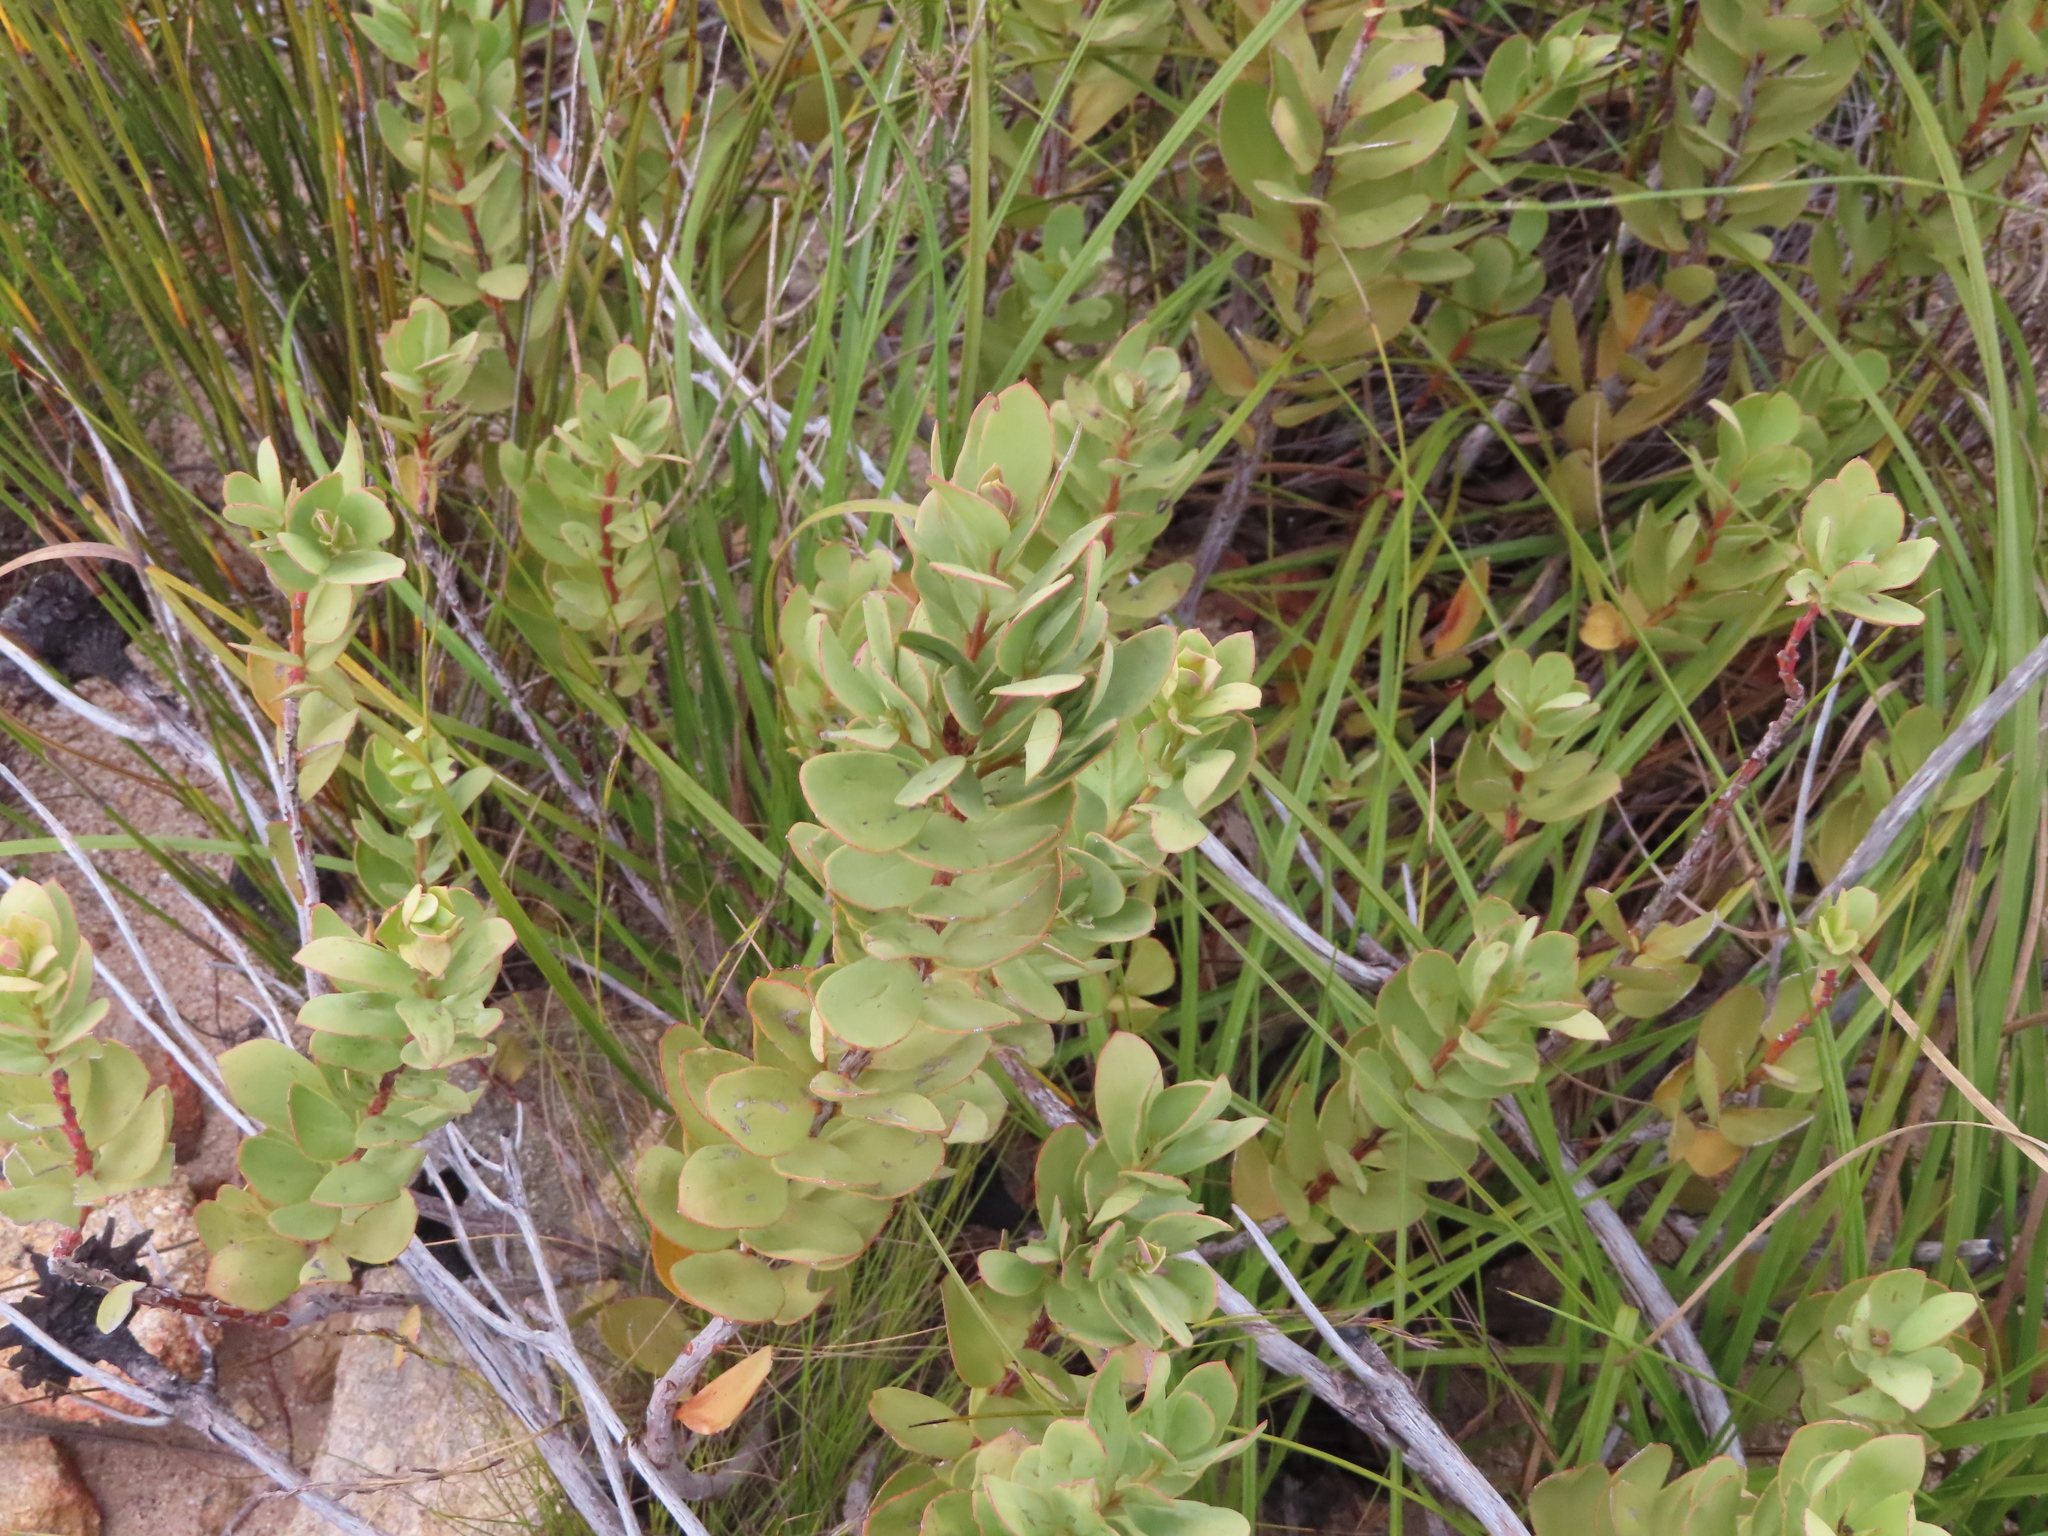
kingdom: Plantae
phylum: Tracheophyta
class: Magnoliopsida
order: Santalales
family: Santalaceae
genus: Osyris
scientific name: Osyris speciosa
